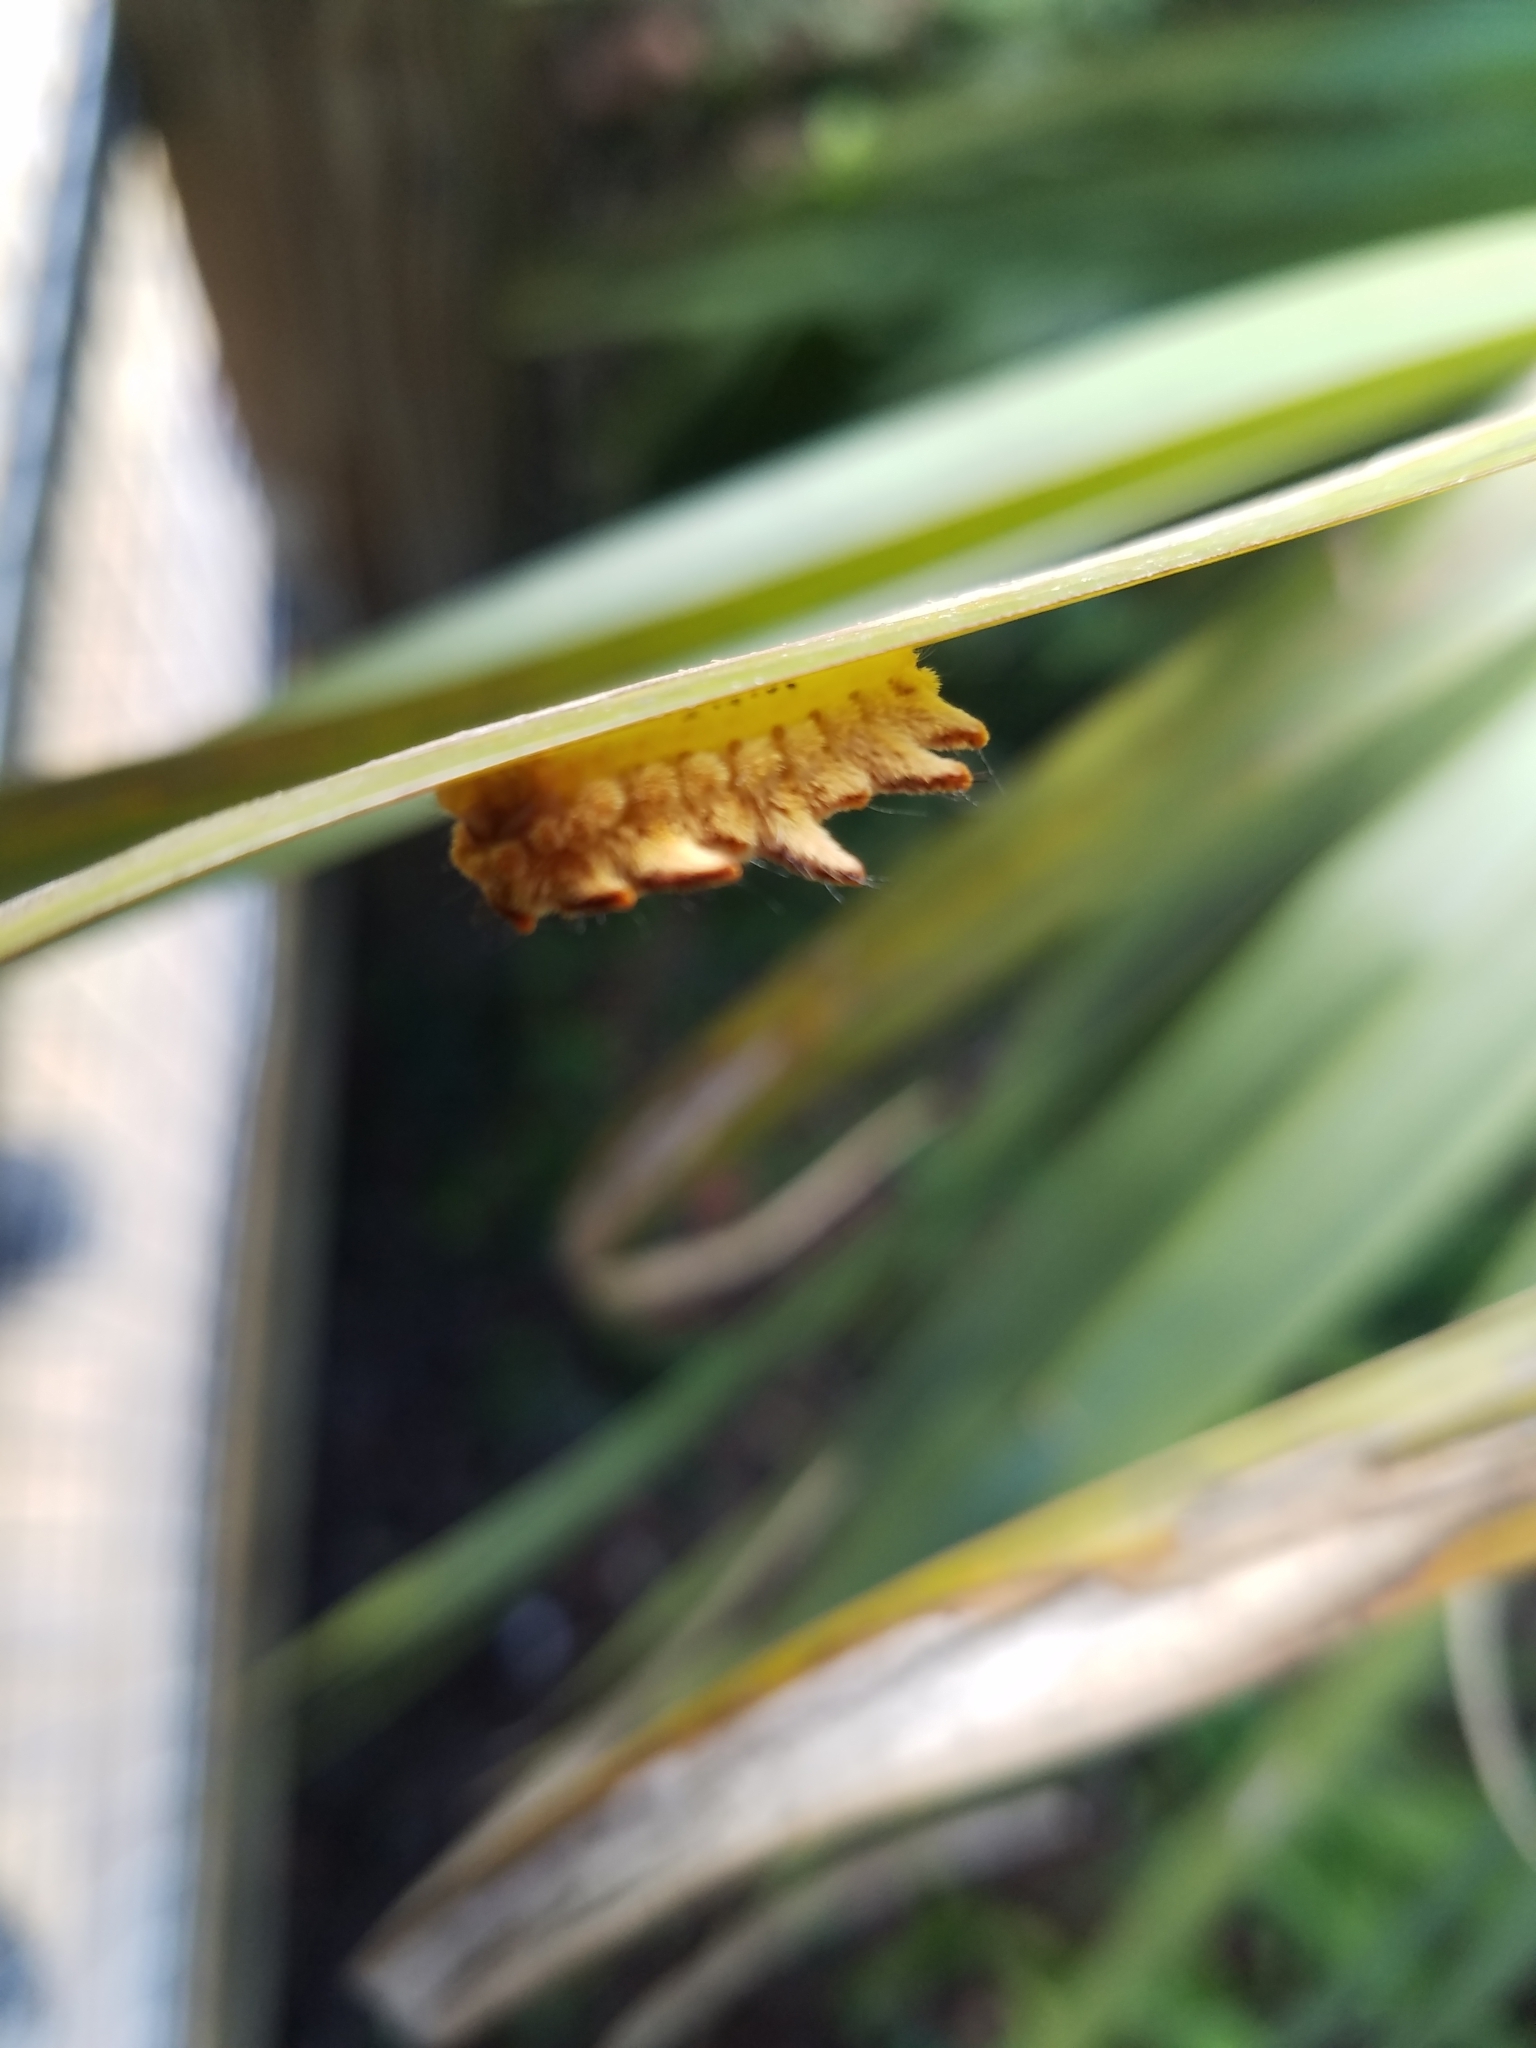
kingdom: Animalia
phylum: Arthropoda
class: Insecta
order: Lepidoptera
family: Limacodidae
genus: Phobetron
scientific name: Phobetron pithecium
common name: Hag moth
